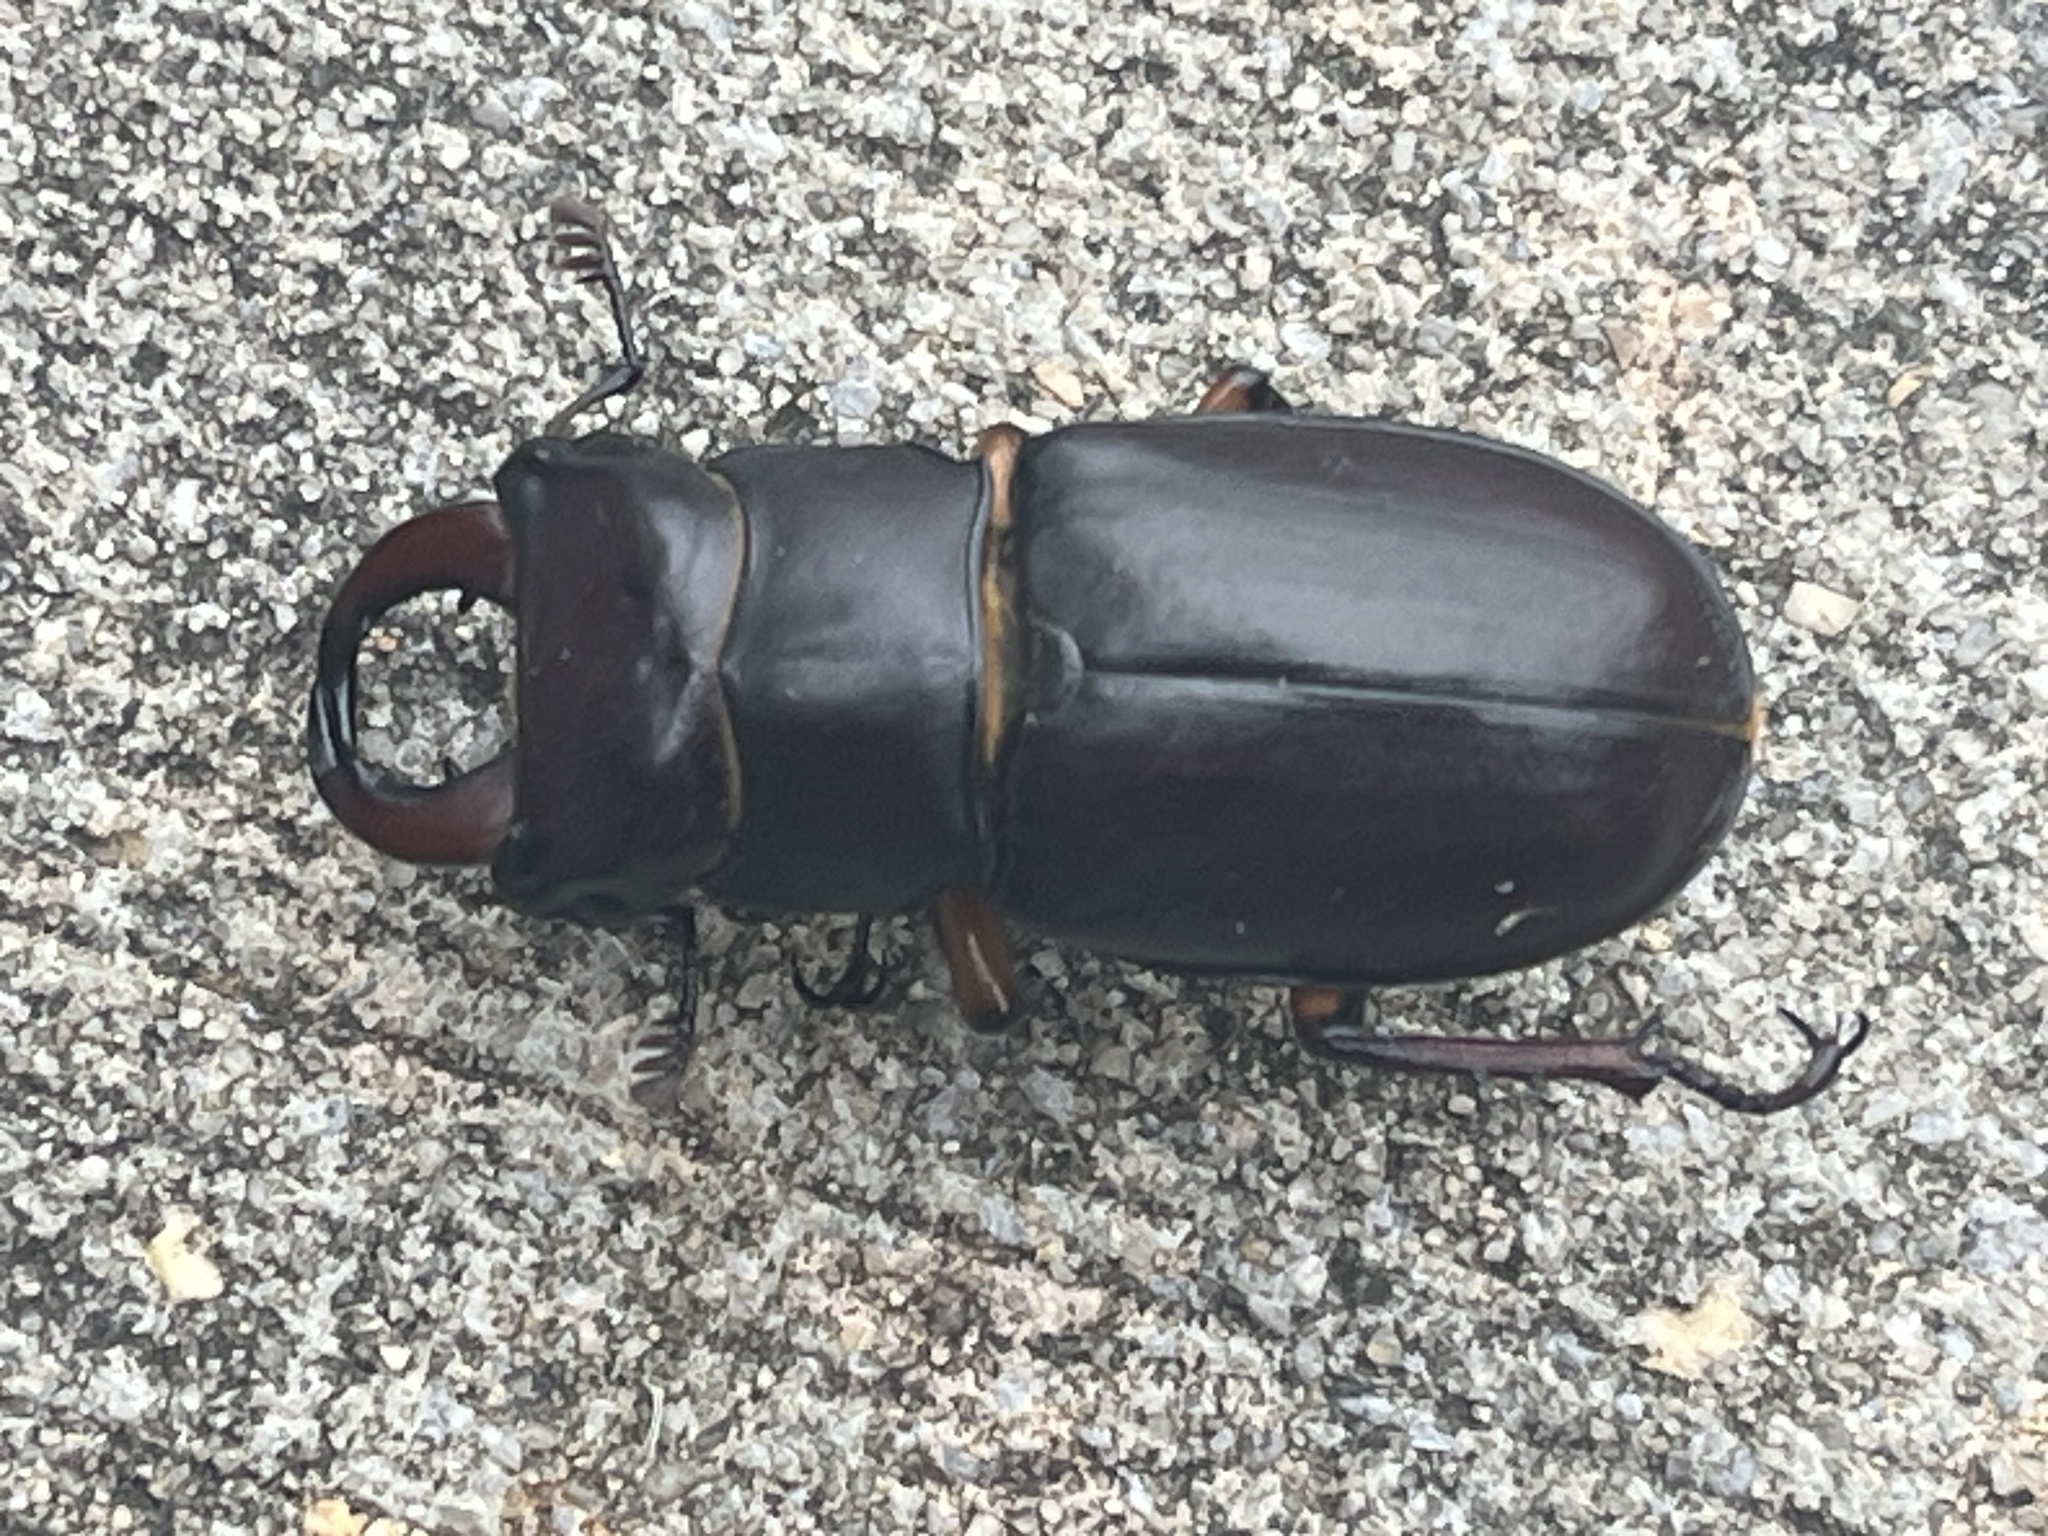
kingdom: Animalia
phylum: Arthropoda
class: Insecta
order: Coleoptera
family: Lucanidae
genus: Lucanus
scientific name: Lucanus capreolus
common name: Stag beetle
